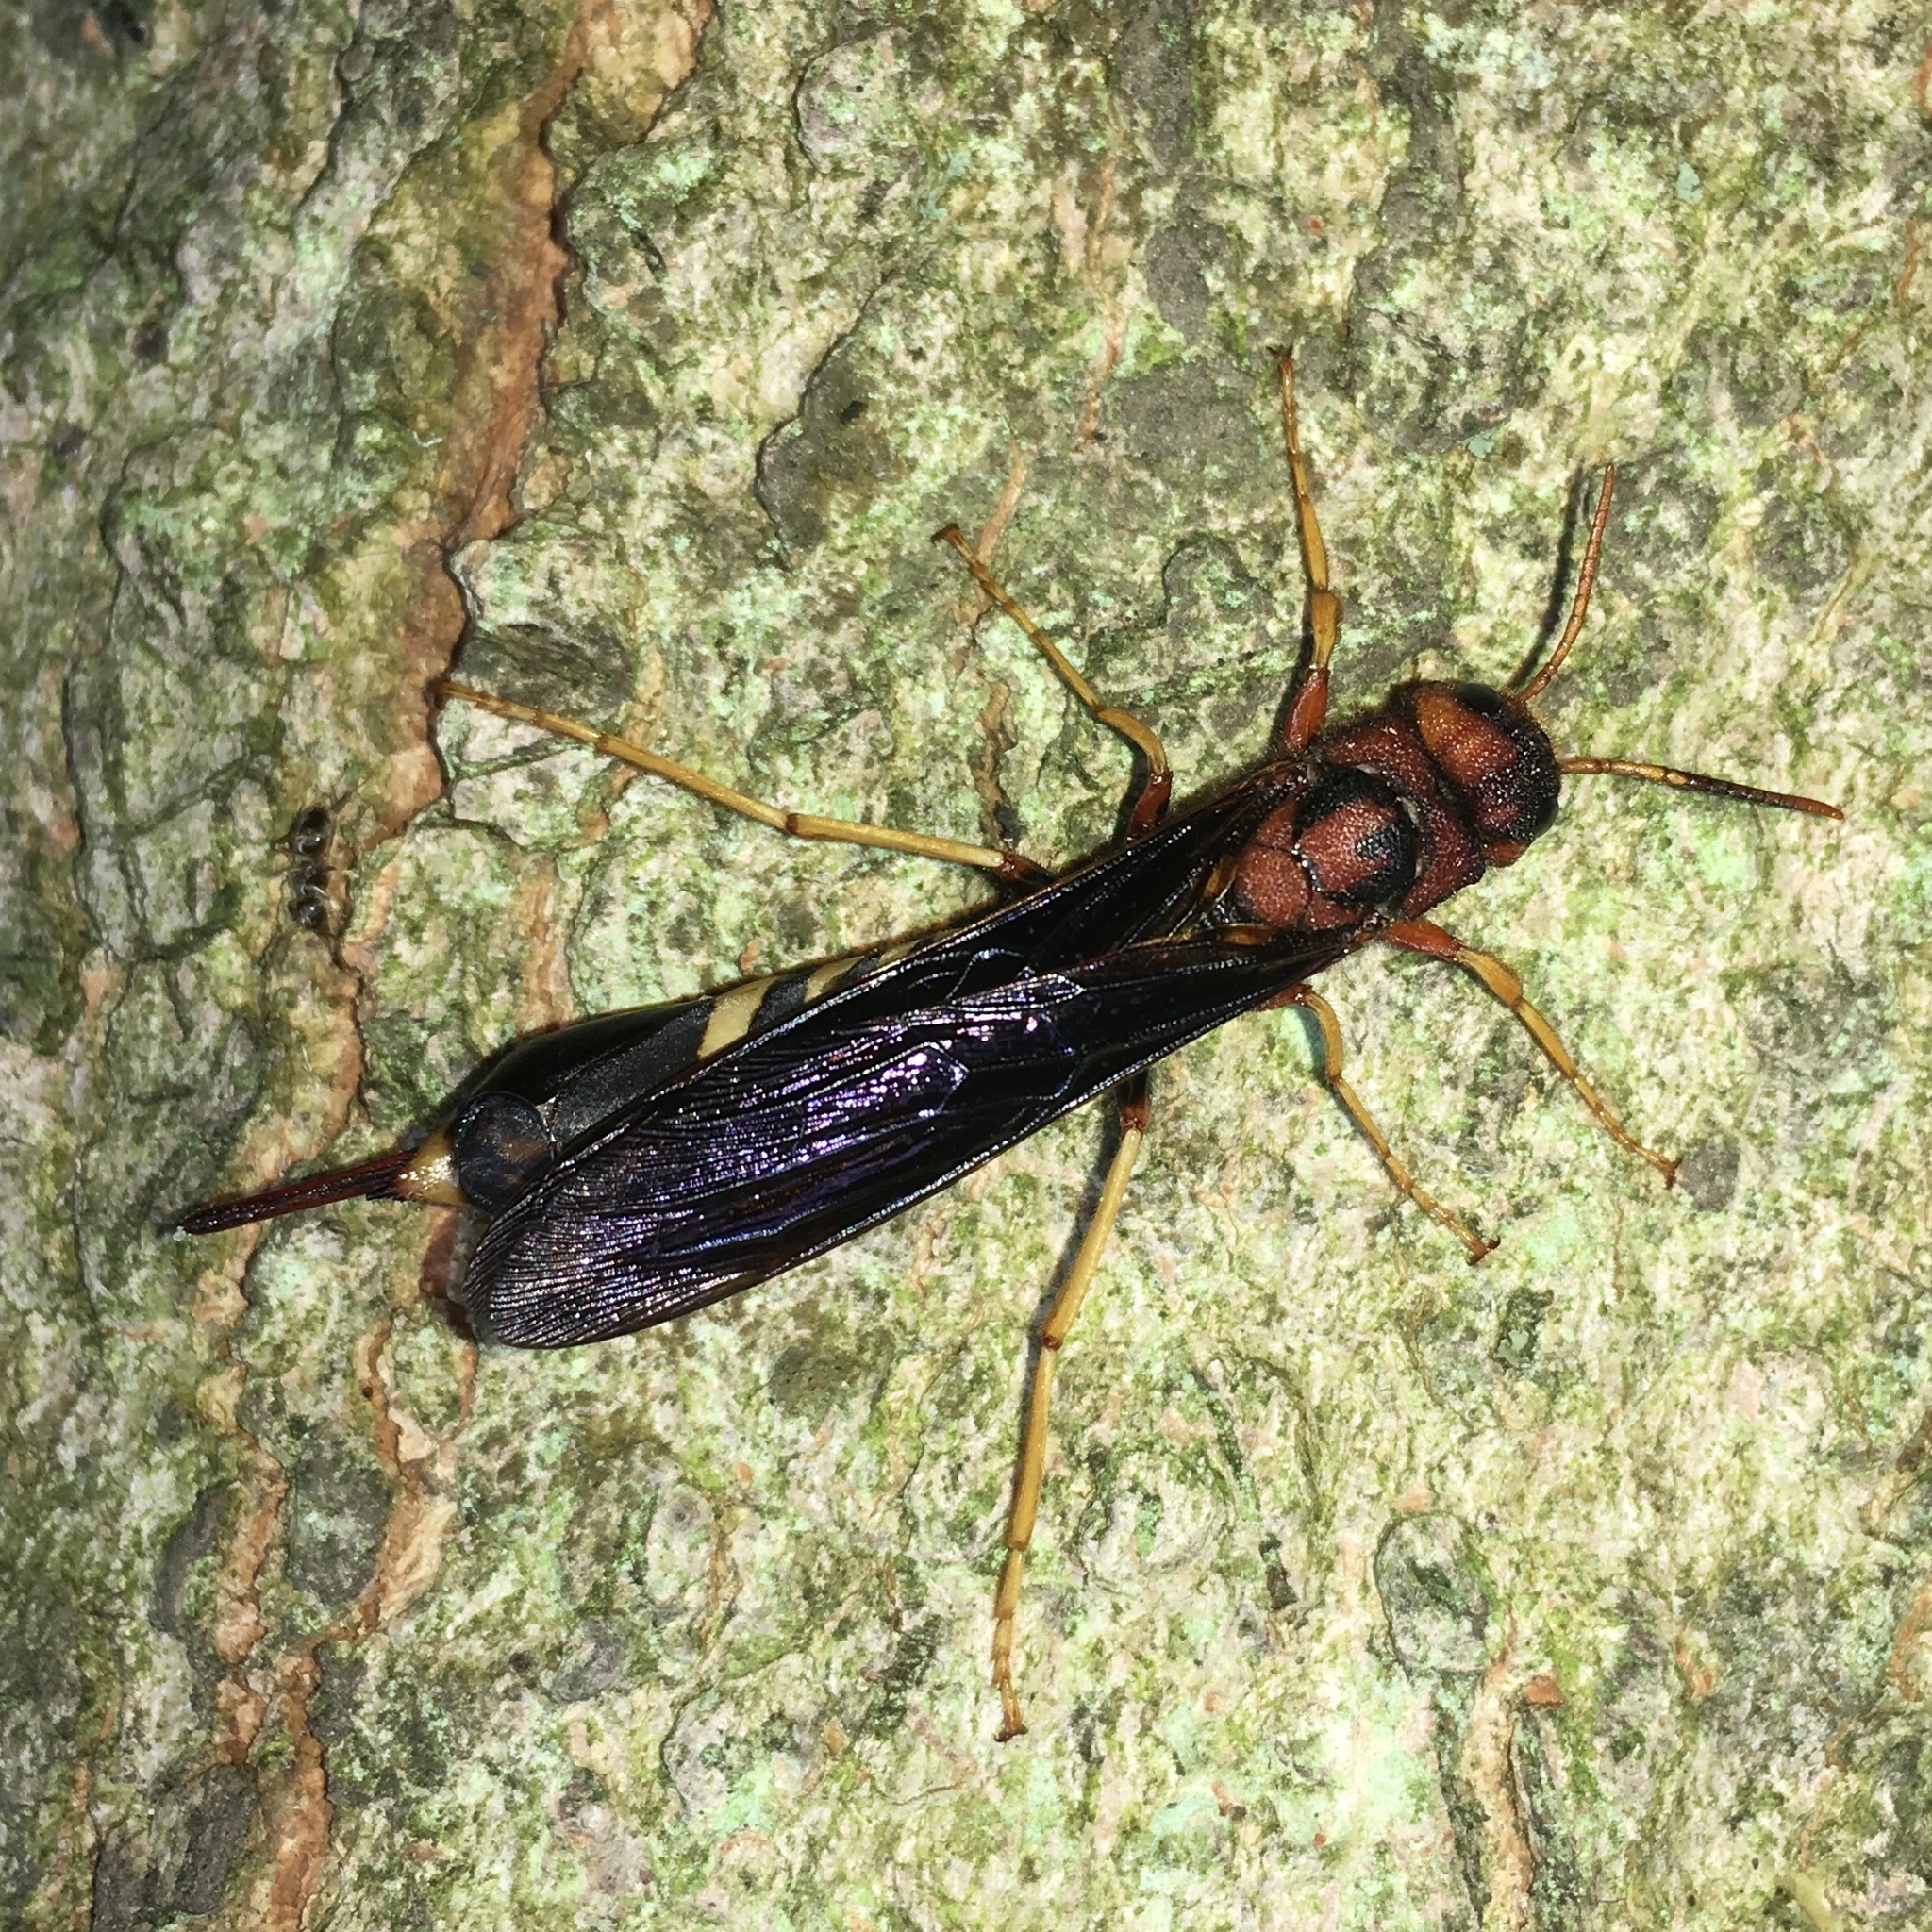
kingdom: Animalia
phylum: Arthropoda
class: Insecta
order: Hymenoptera
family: Siricidae
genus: Tremex
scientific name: Tremex columba
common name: Wasp
